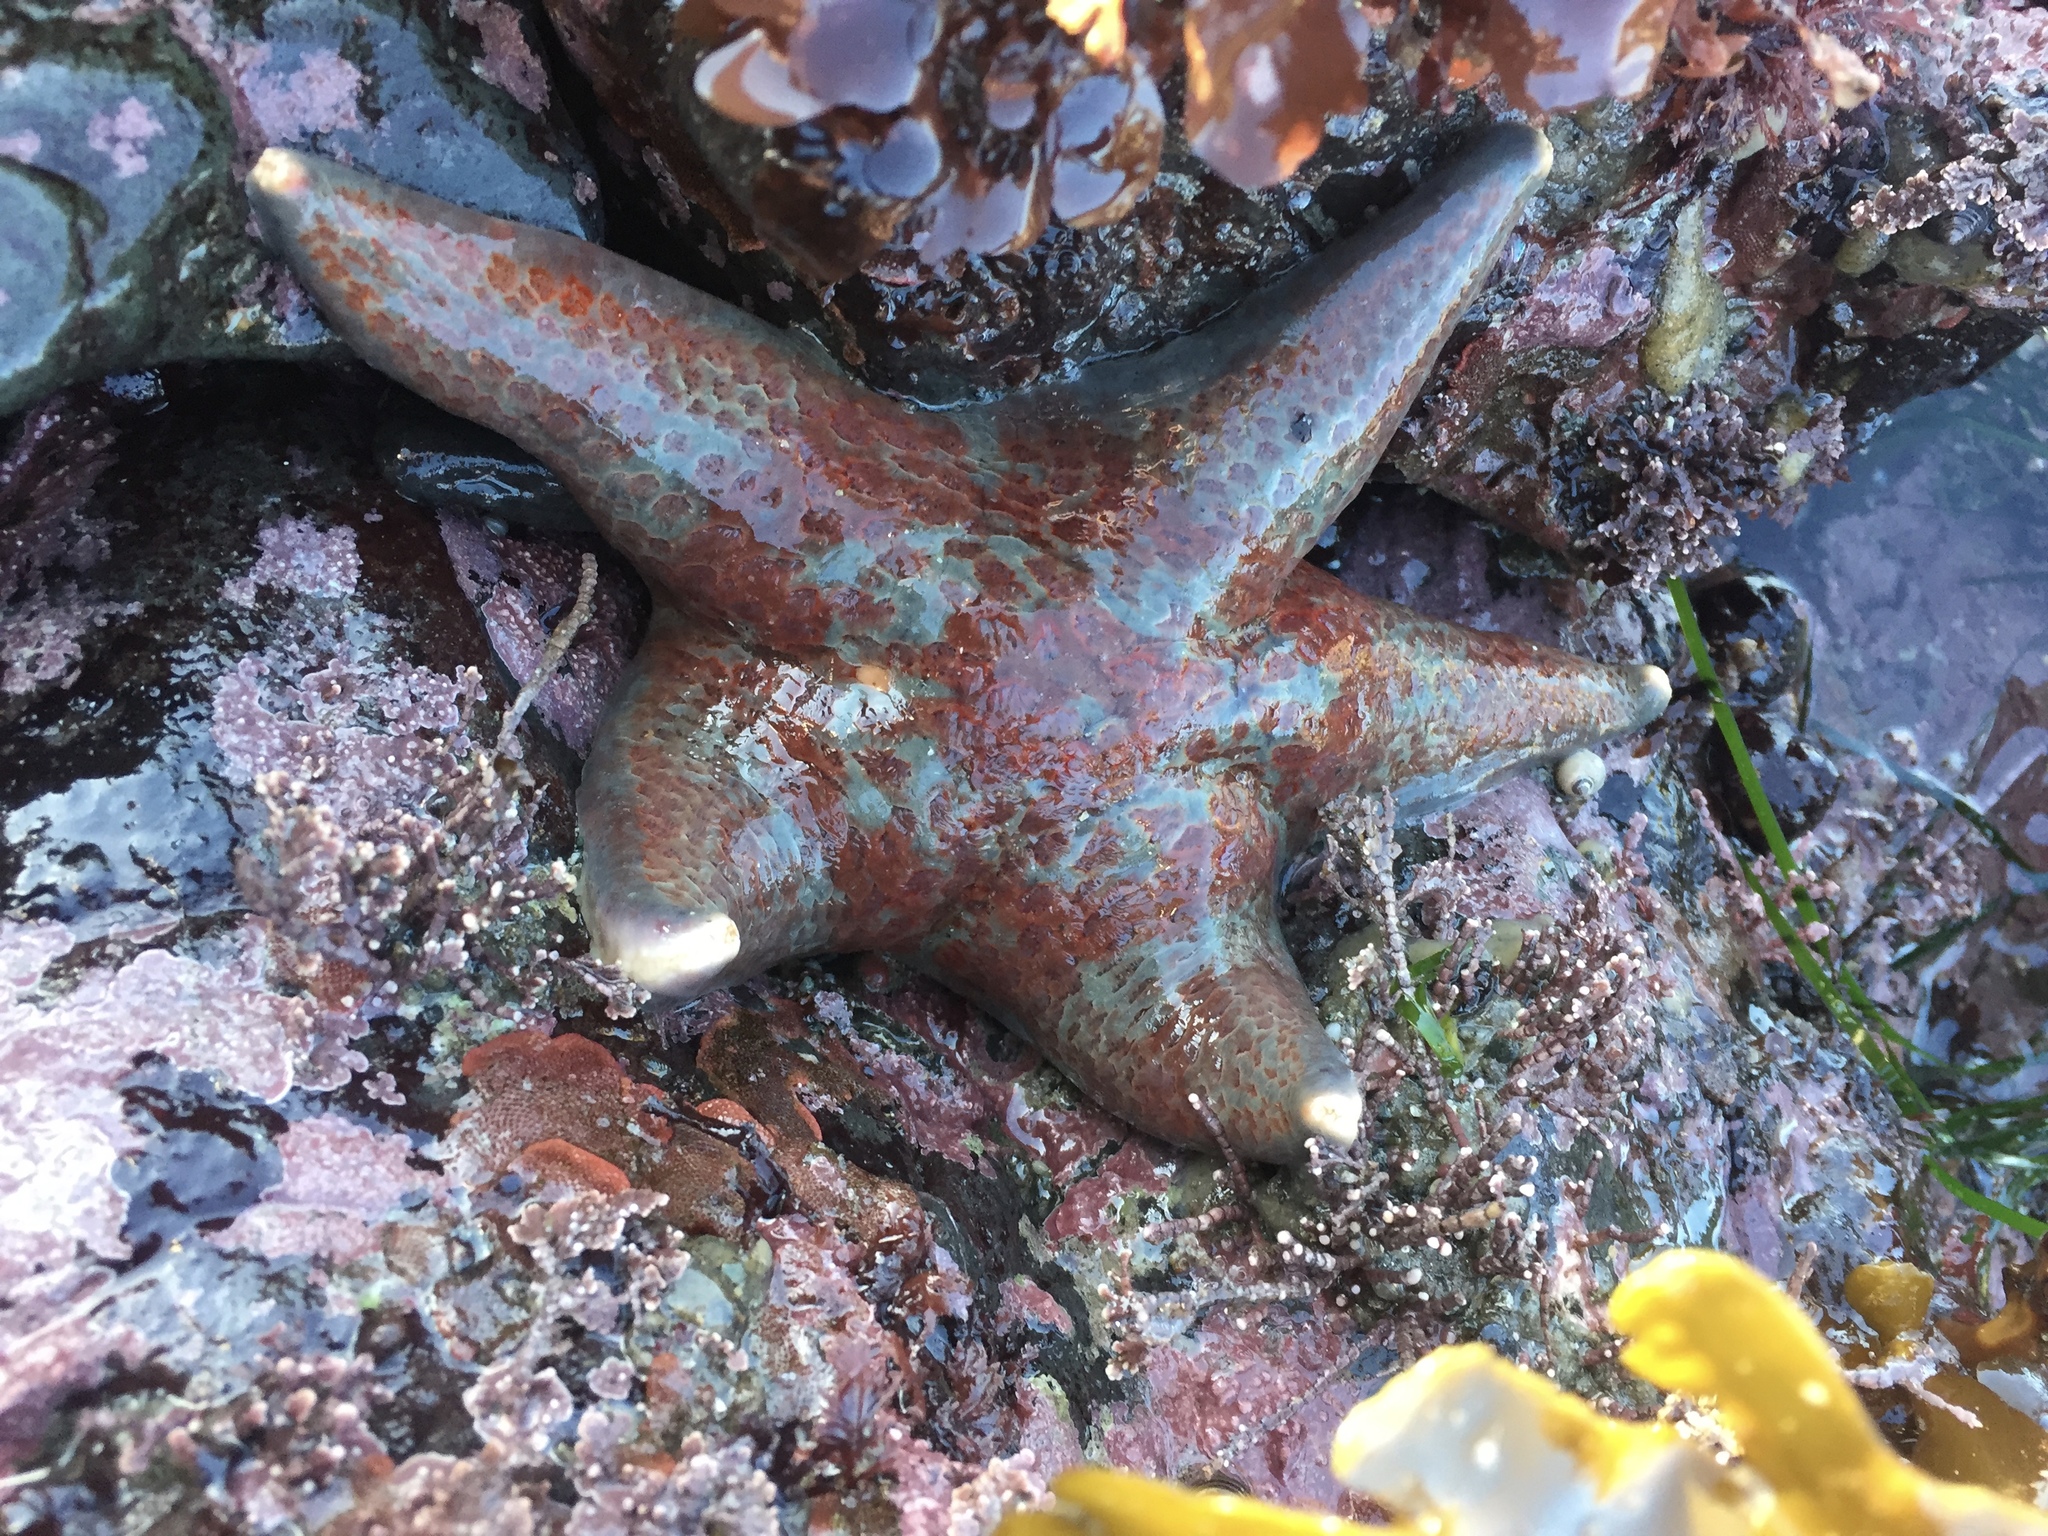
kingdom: Animalia
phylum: Echinodermata
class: Asteroidea
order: Valvatida
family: Asteropseidae
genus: Dermasterias
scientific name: Dermasterias imbricata
